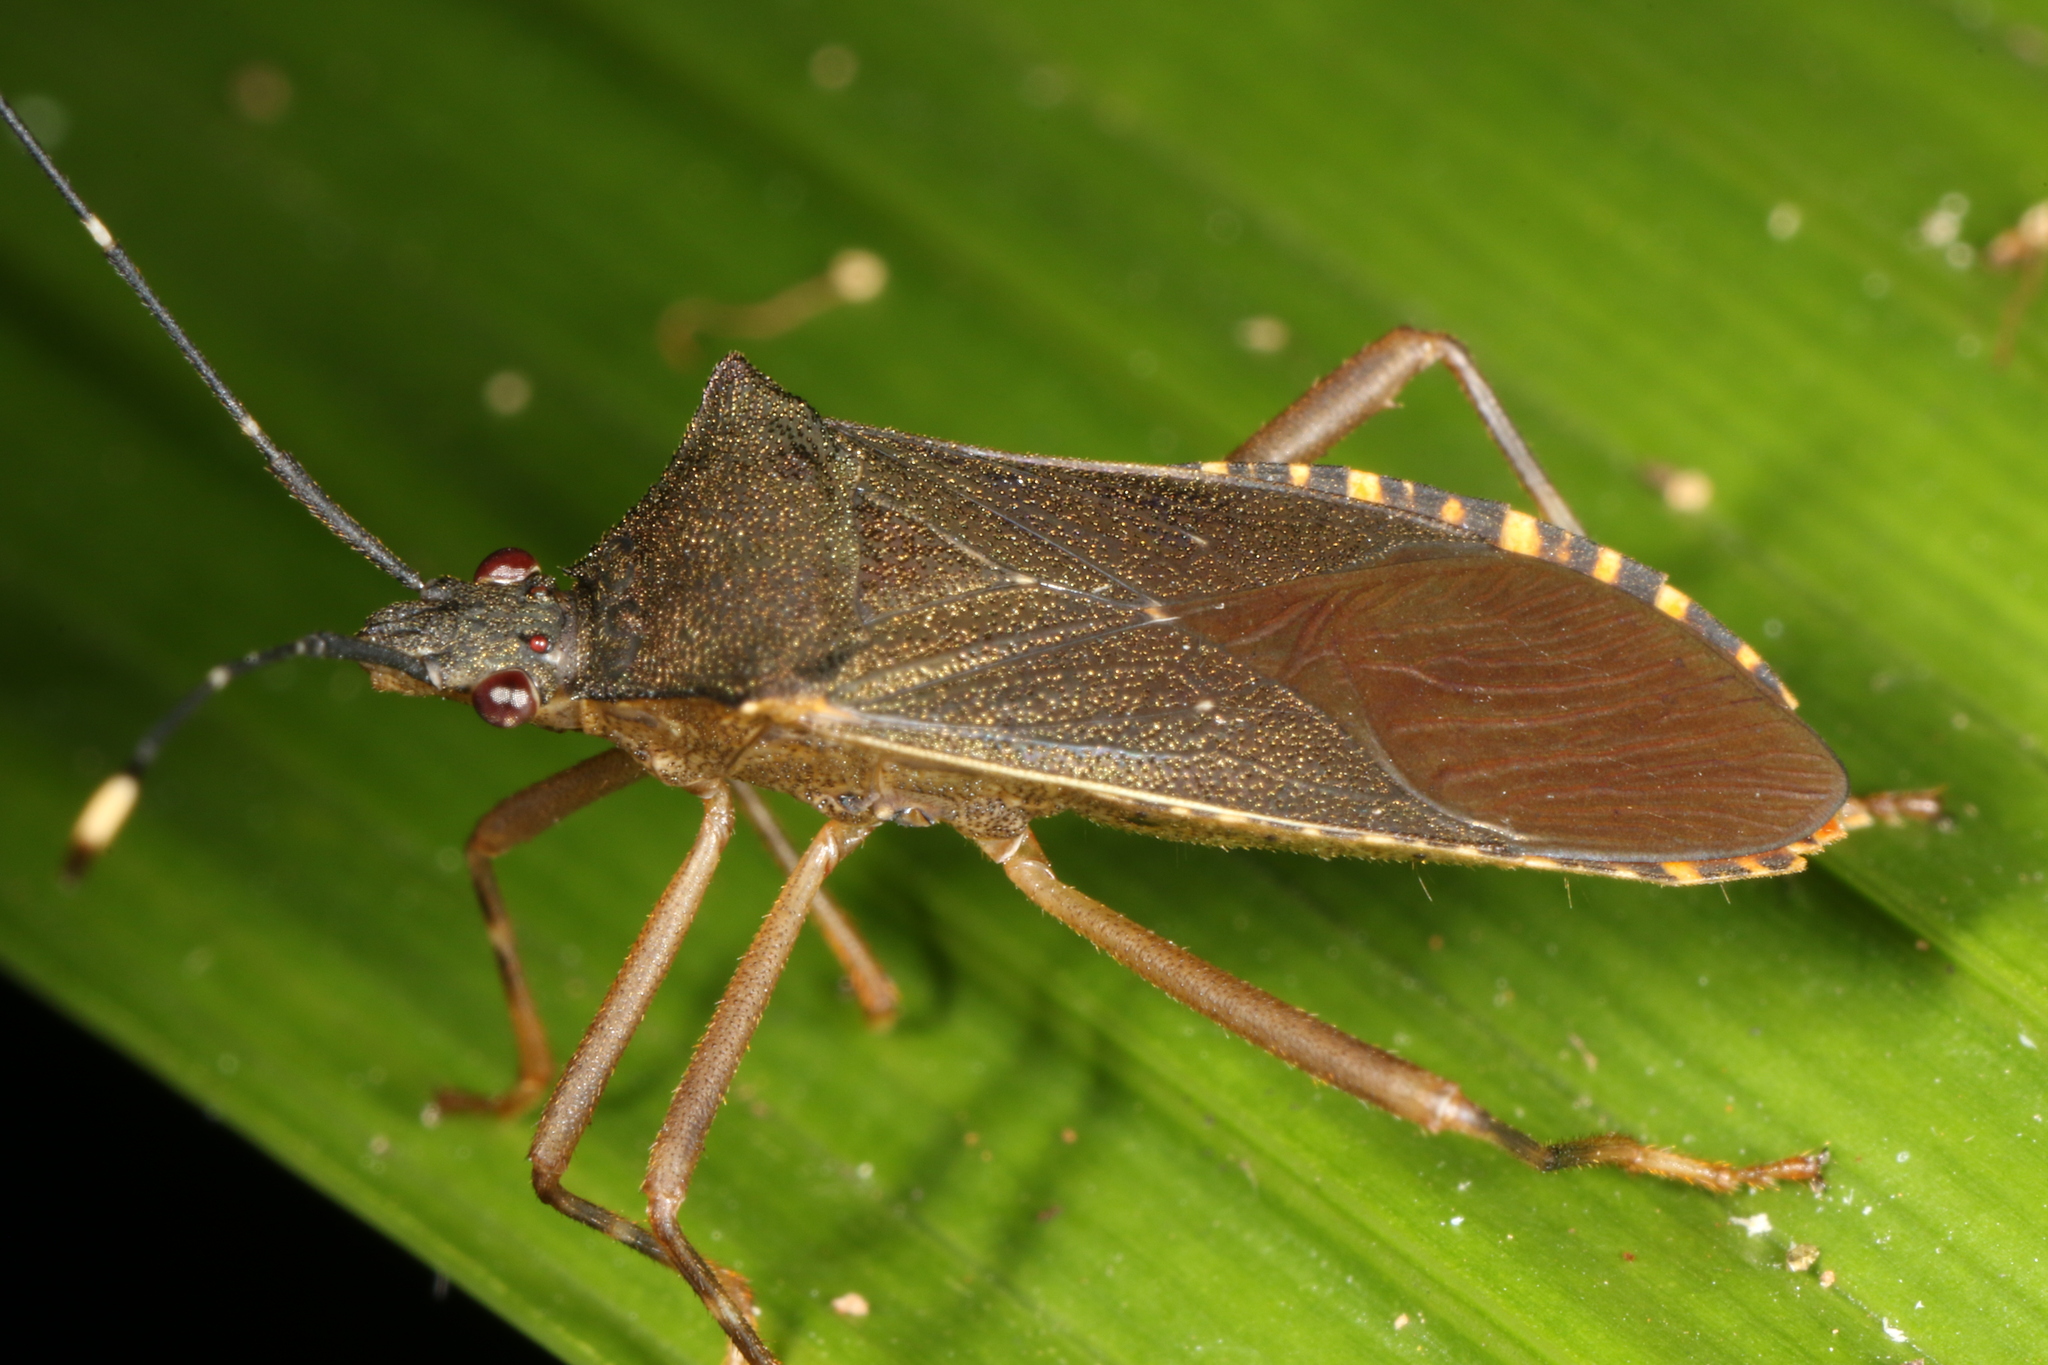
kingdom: Animalia
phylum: Arthropoda
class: Insecta
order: Hemiptera
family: Coreidae
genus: Leptoscelis
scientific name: Leptoscelis elongator
